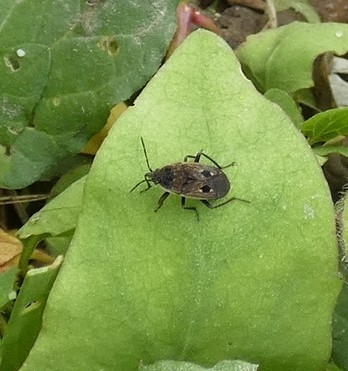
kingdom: Animalia
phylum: Arthropoda
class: Insecta
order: Hemiptera
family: Rhyparochromidae
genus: Graptopeltus
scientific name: Graptopeltus lynceus
